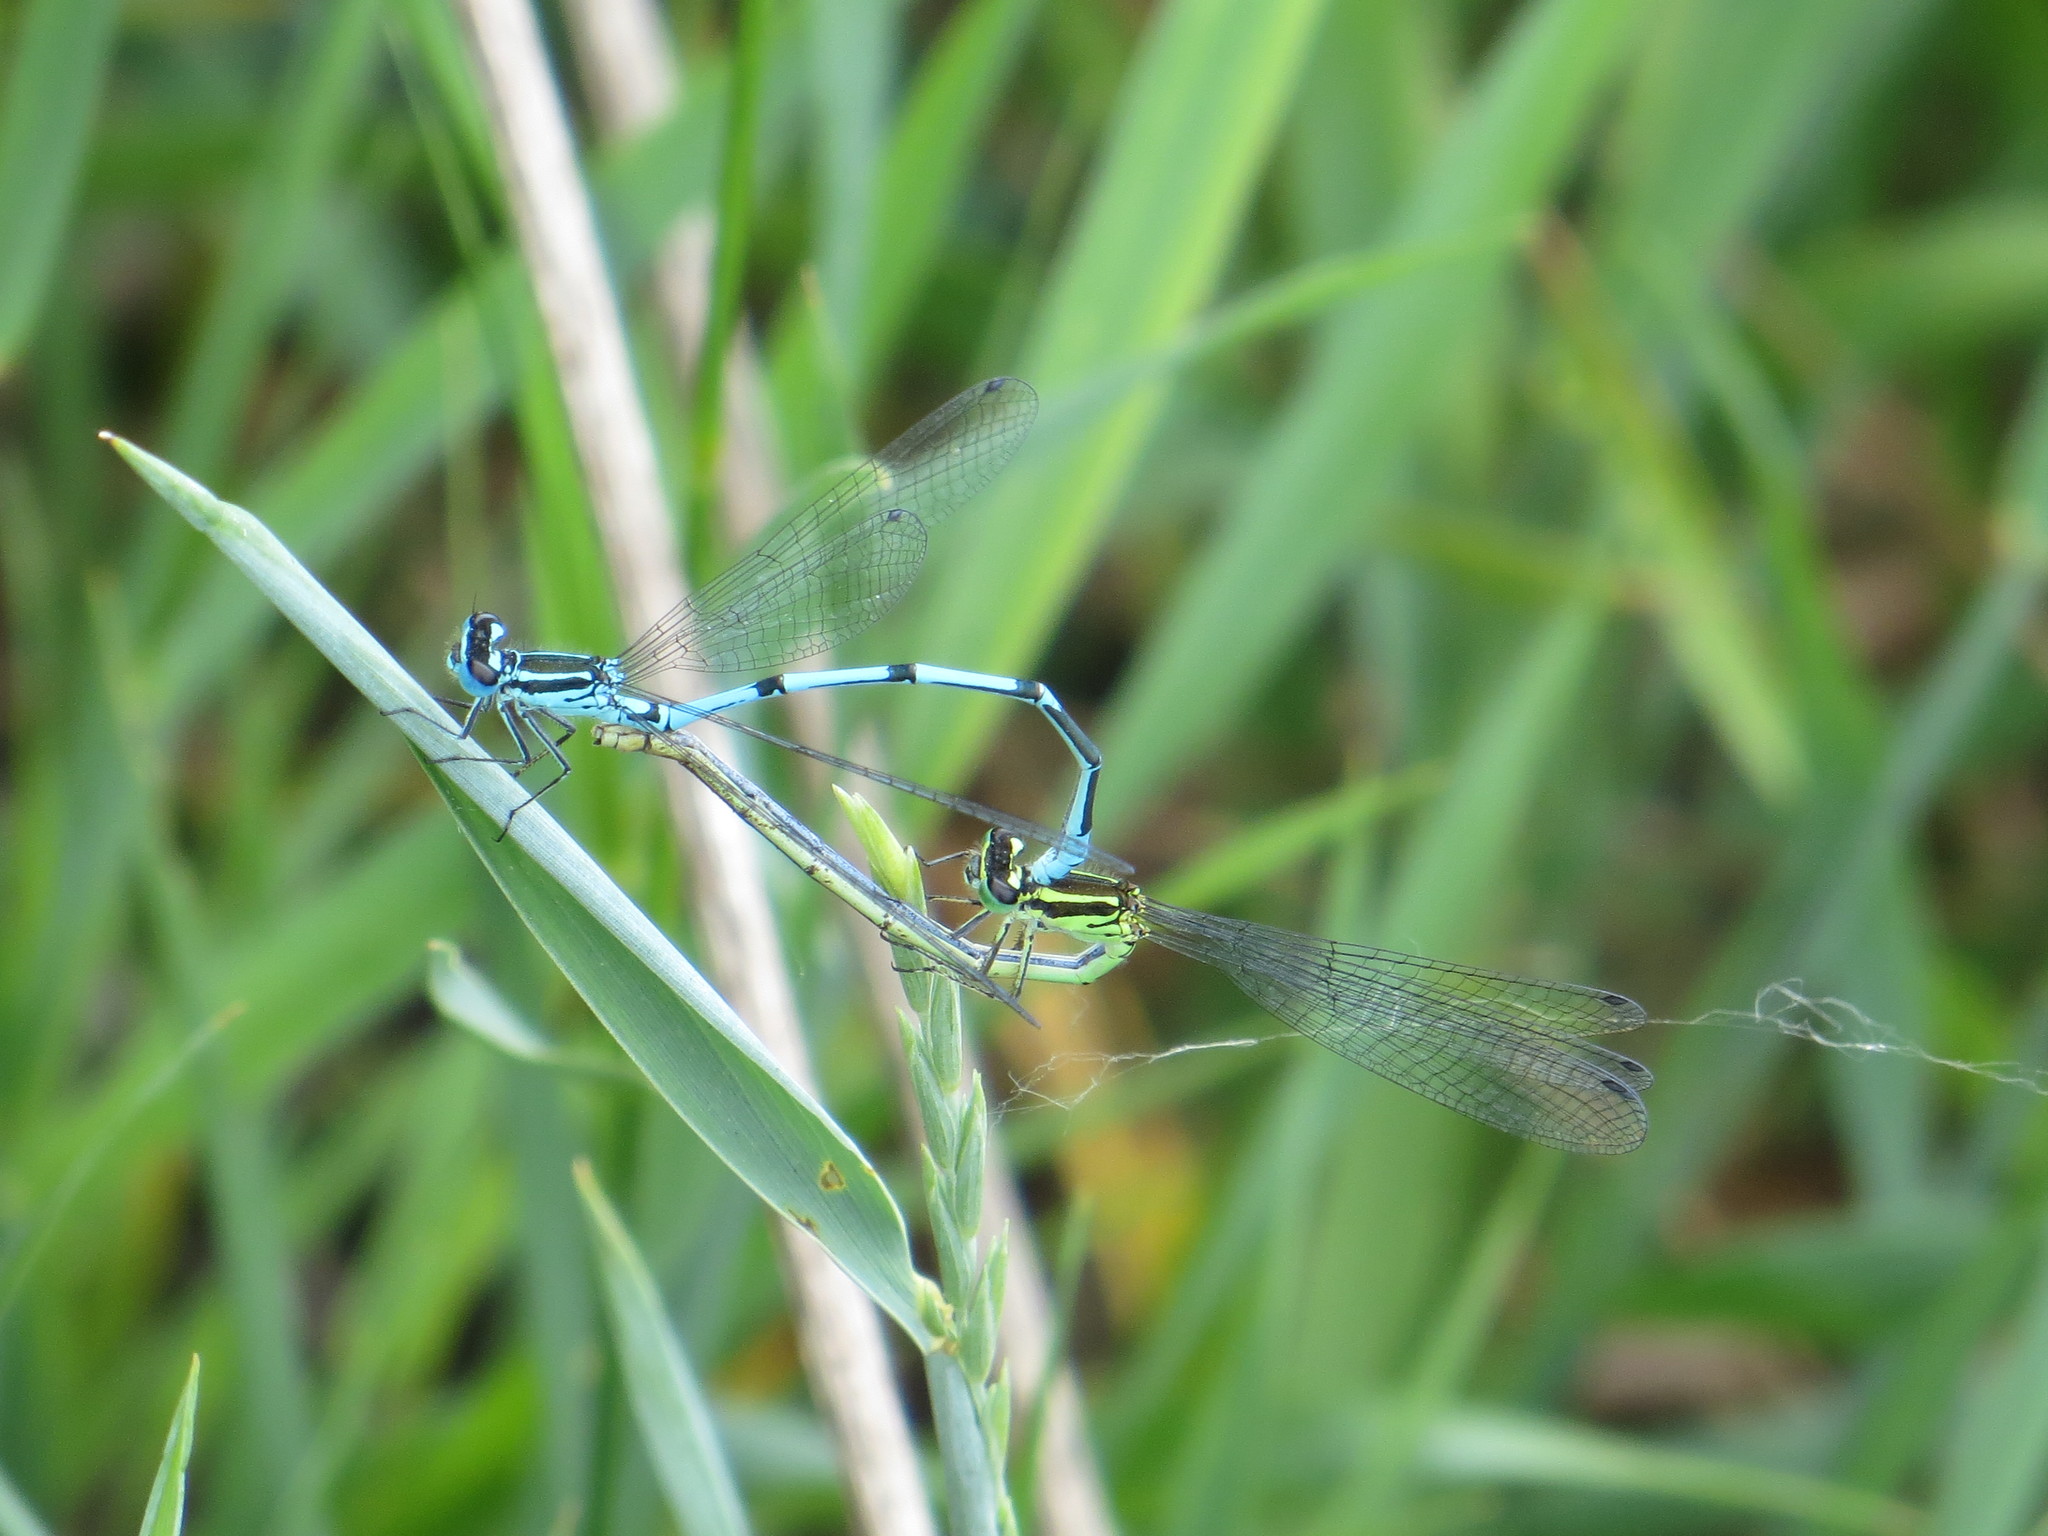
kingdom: Animalia
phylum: Arthropoda
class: Insecta
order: Odonata
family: Coenagrionidae
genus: Coenagrion
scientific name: Coenagrion puella
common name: Azure damselfly
